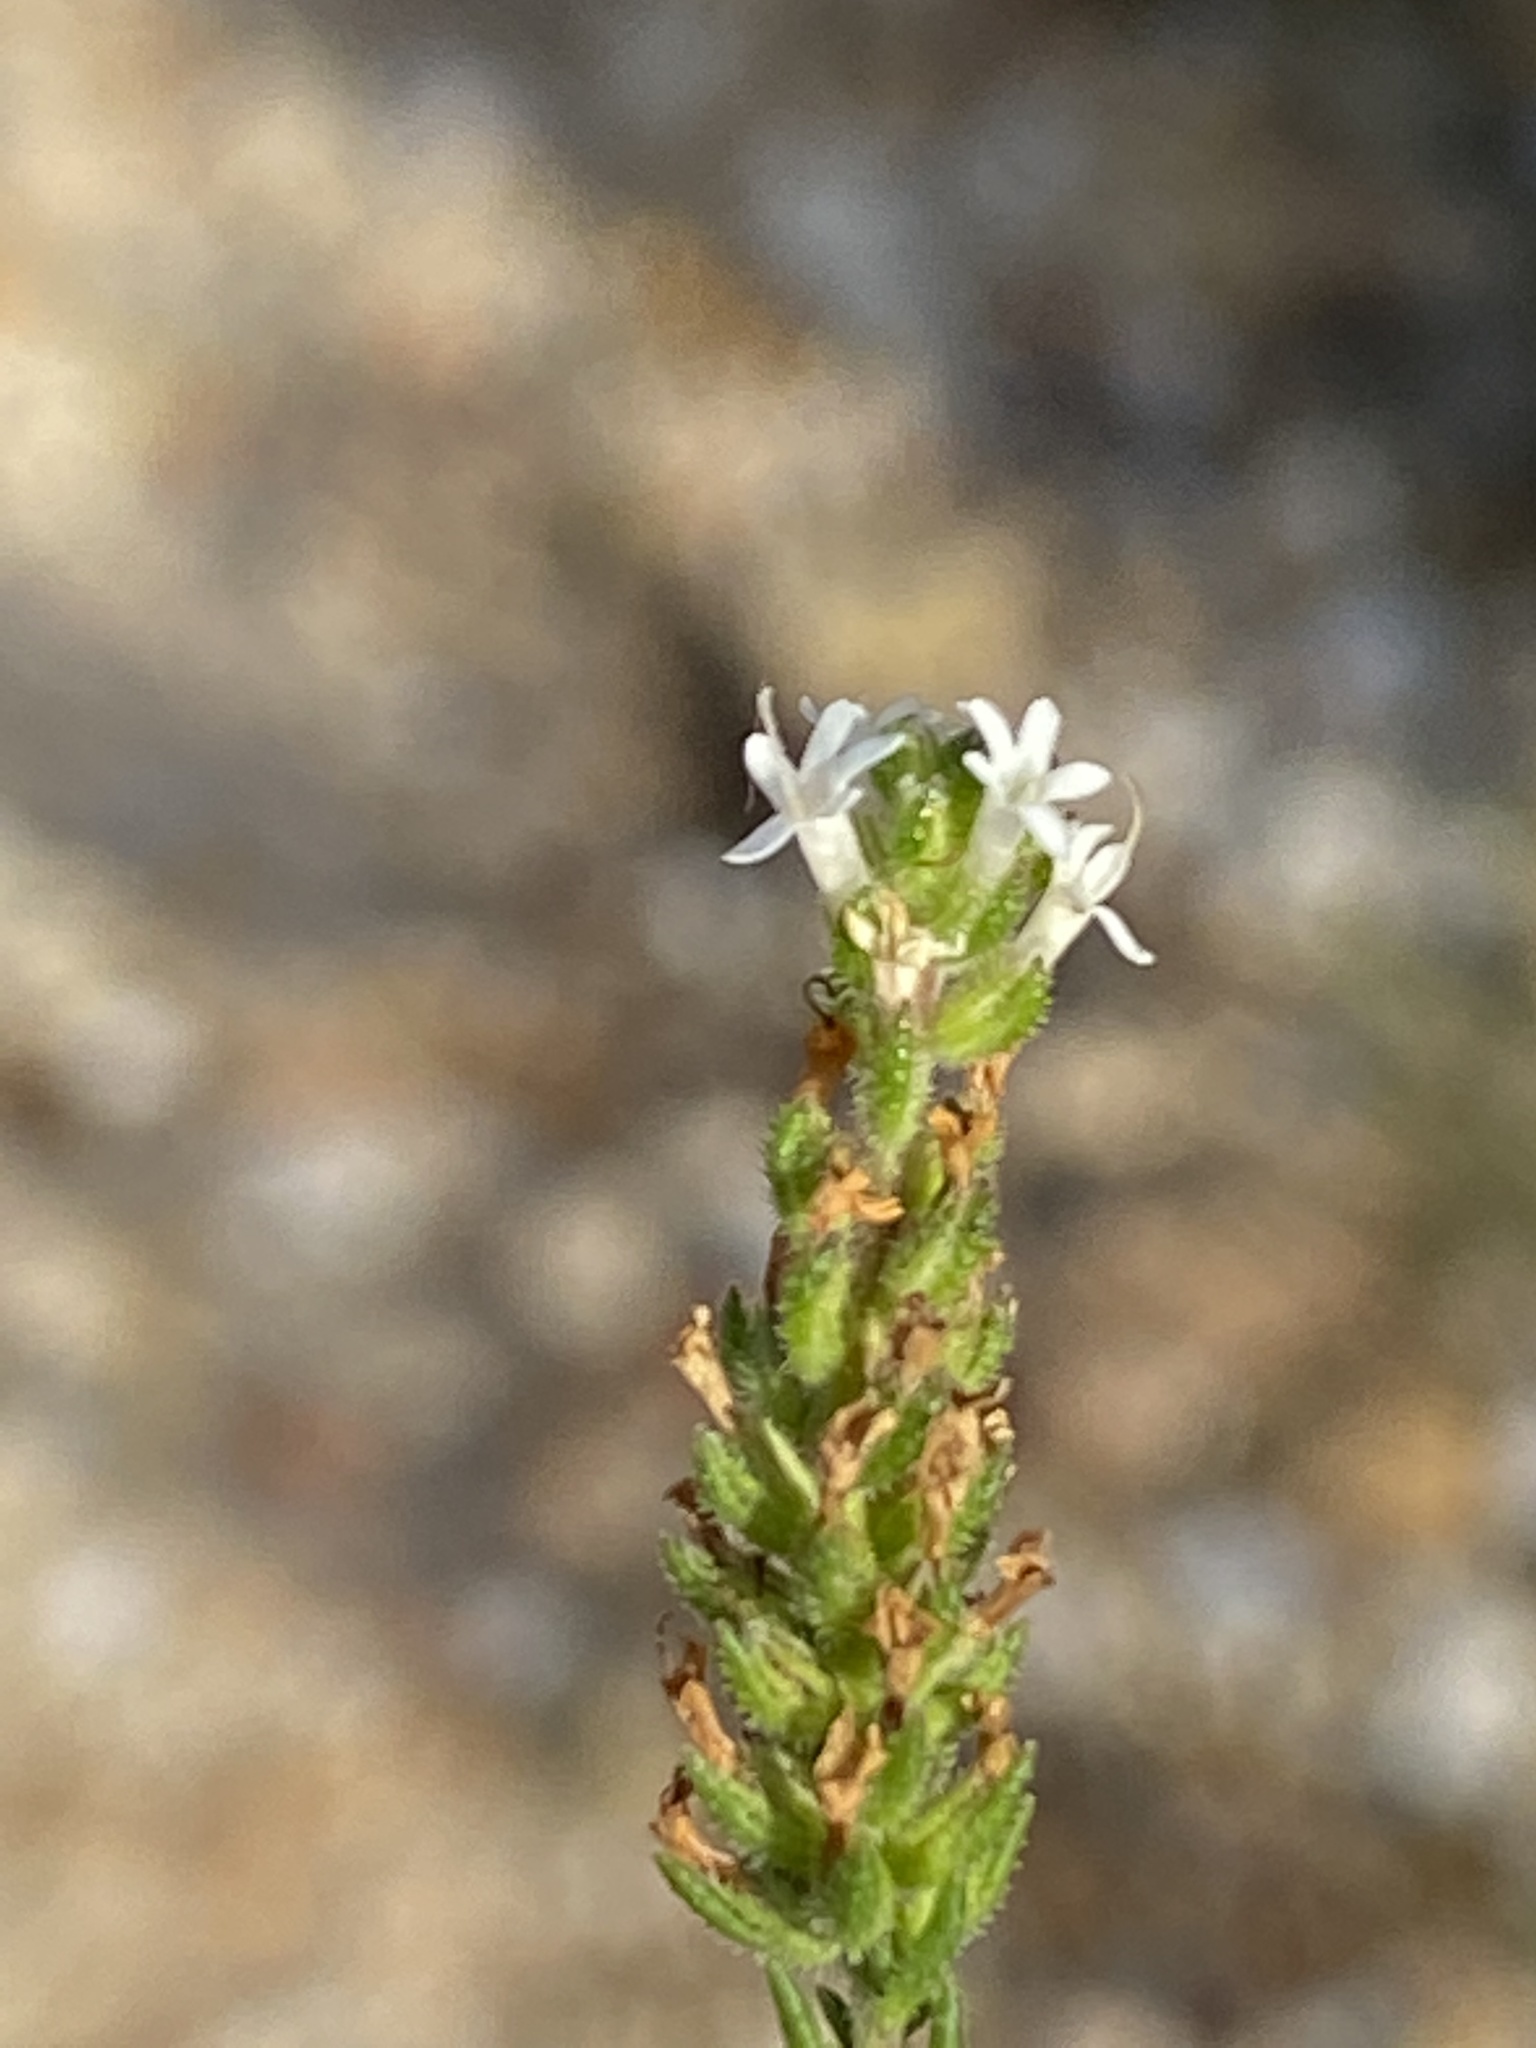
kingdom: Plantae
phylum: Tracheophyta
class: Magnoliopsida
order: Lamiales
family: Scrophulariaceae
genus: Selago
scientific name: Selago impedita
